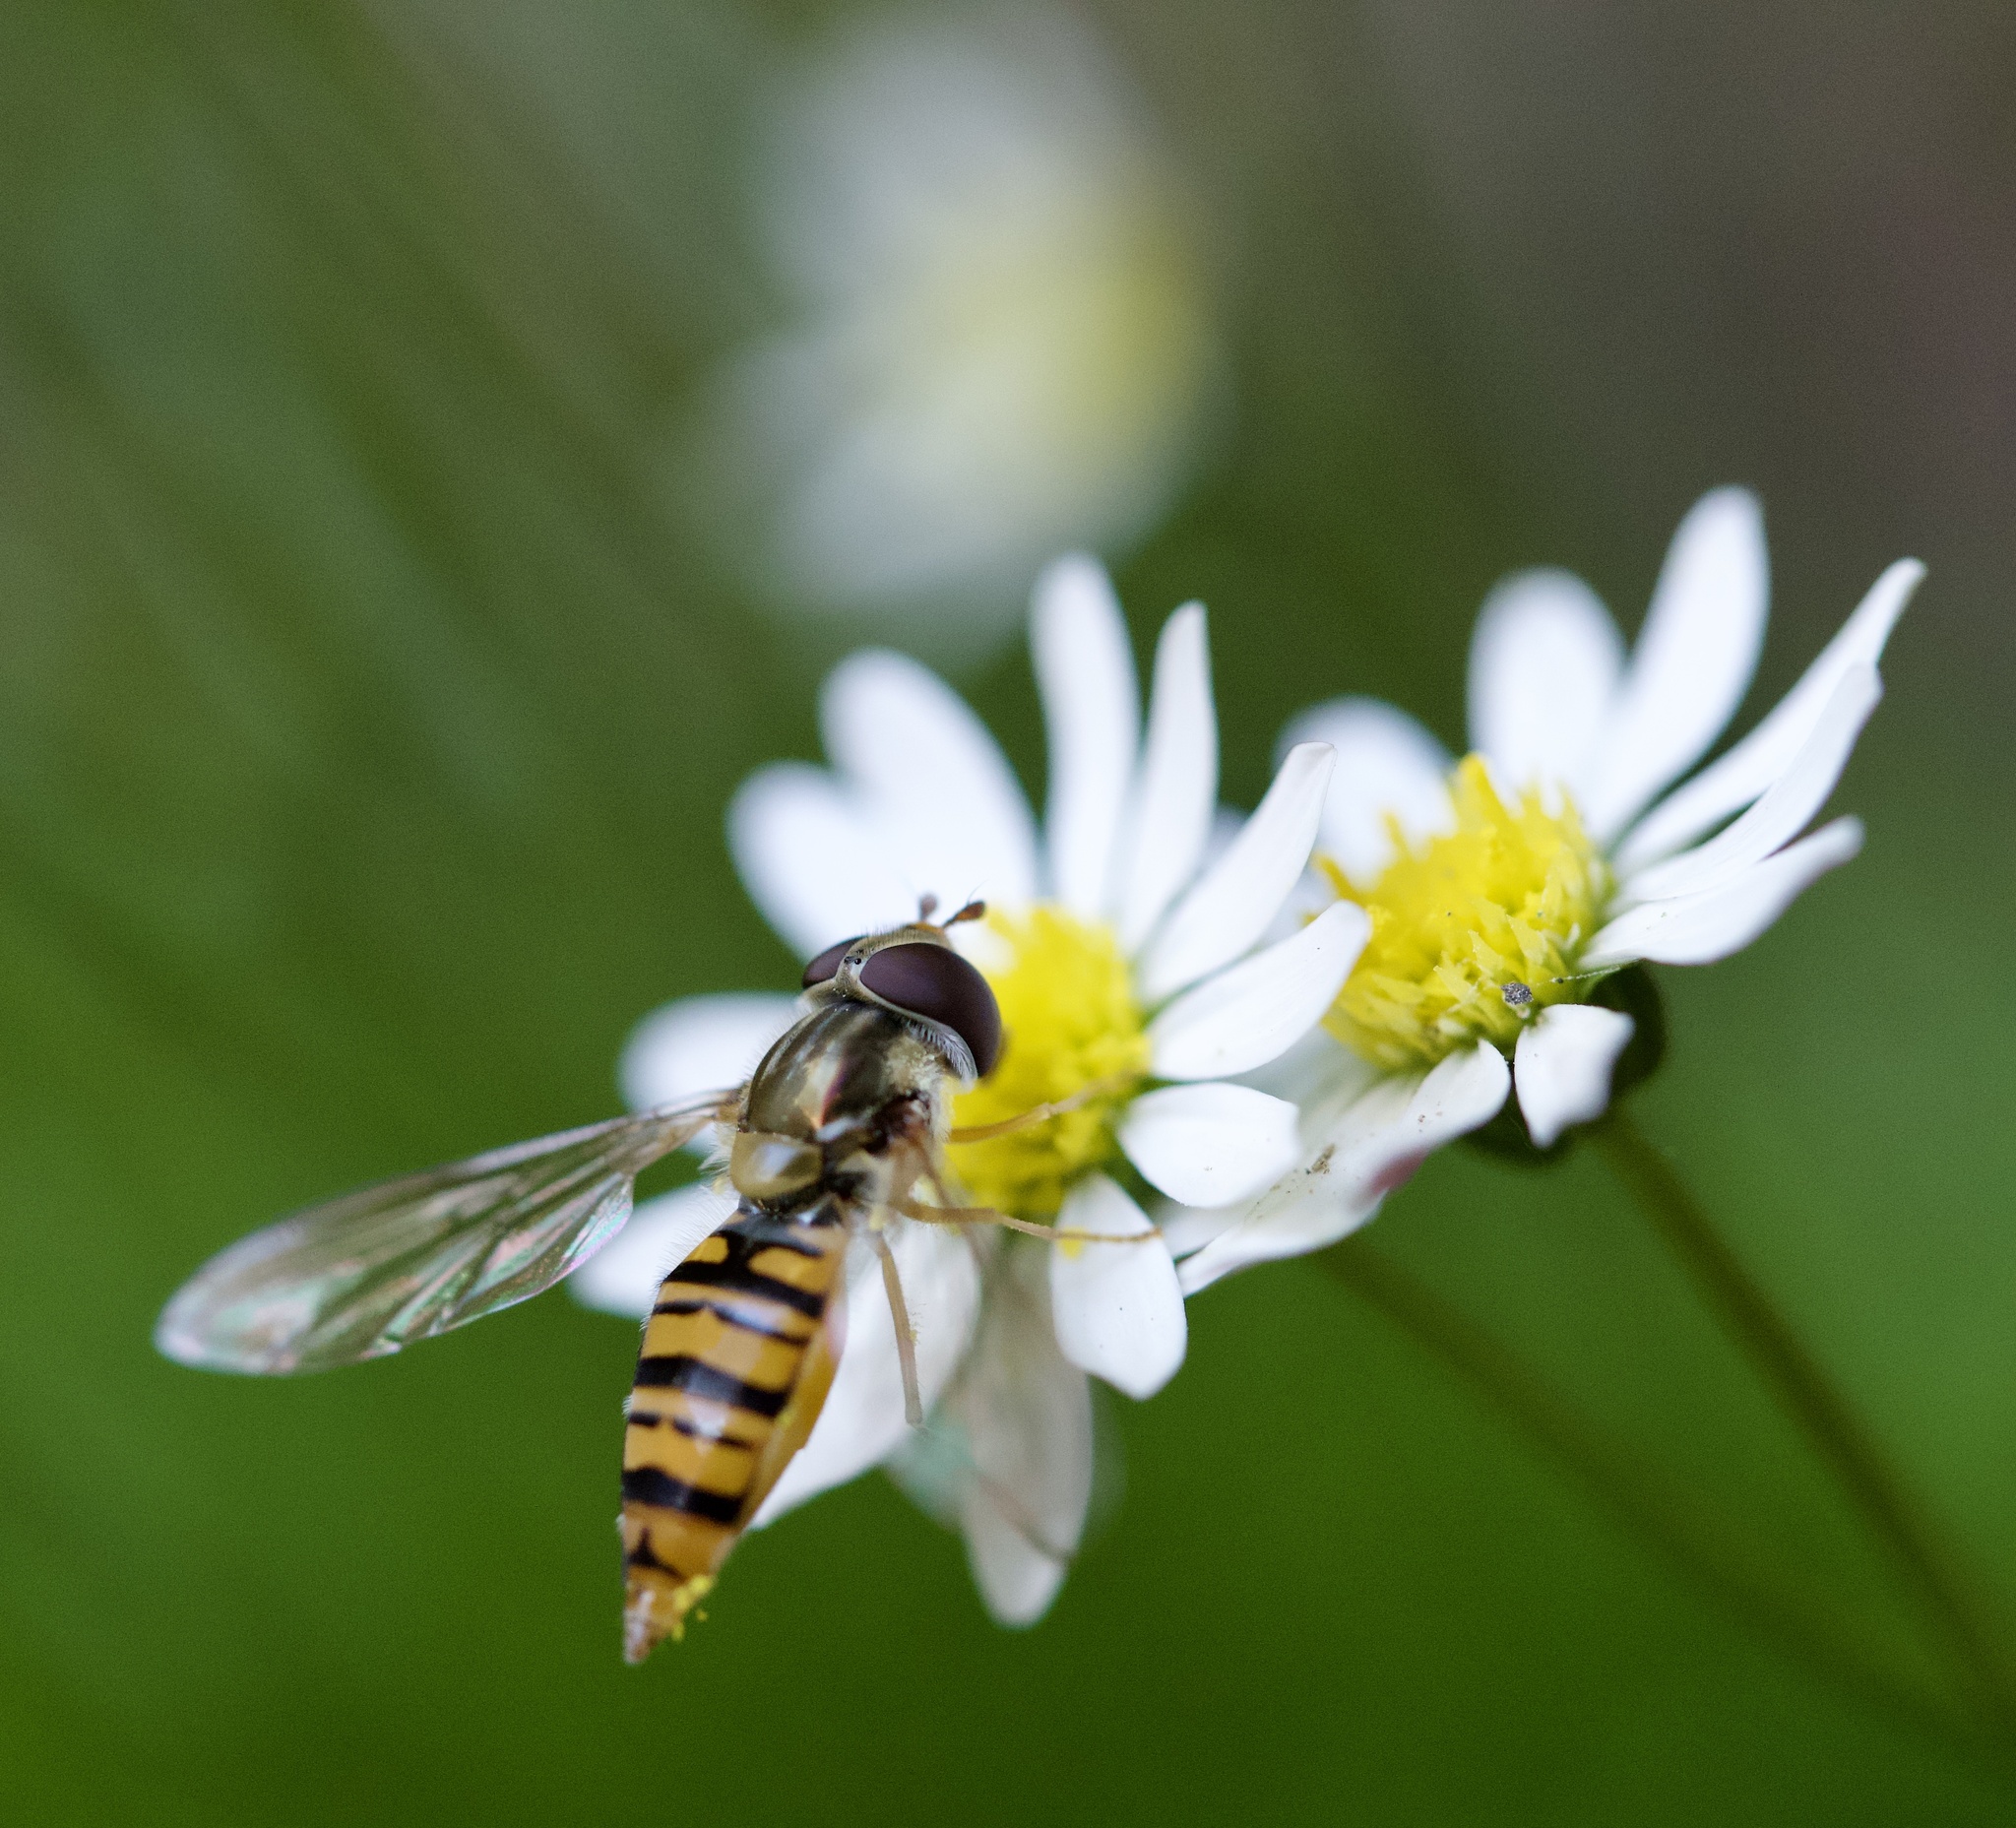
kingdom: Animalia
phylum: Arthropoda
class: Insecta
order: Diptera
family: Syrphidae
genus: Episyrphus
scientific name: Episyrphus balteatus
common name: Marmalade hoverfly
